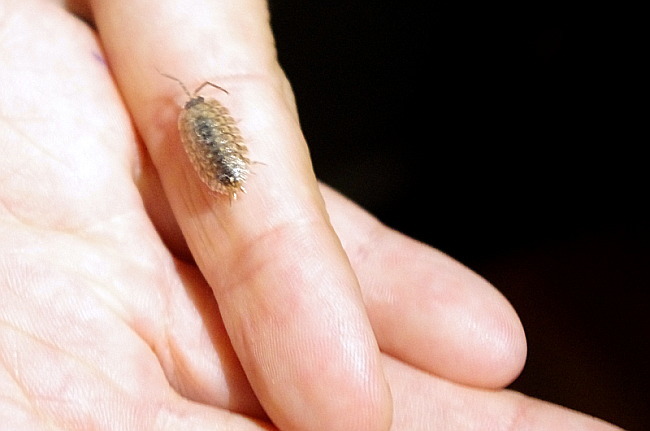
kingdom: Animalia
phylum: Arthropoda
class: Malacostraca
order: Isopoda
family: Porcellionidae
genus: Porcellio
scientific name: Porcellio spinicornis
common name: Painted woodlouse
